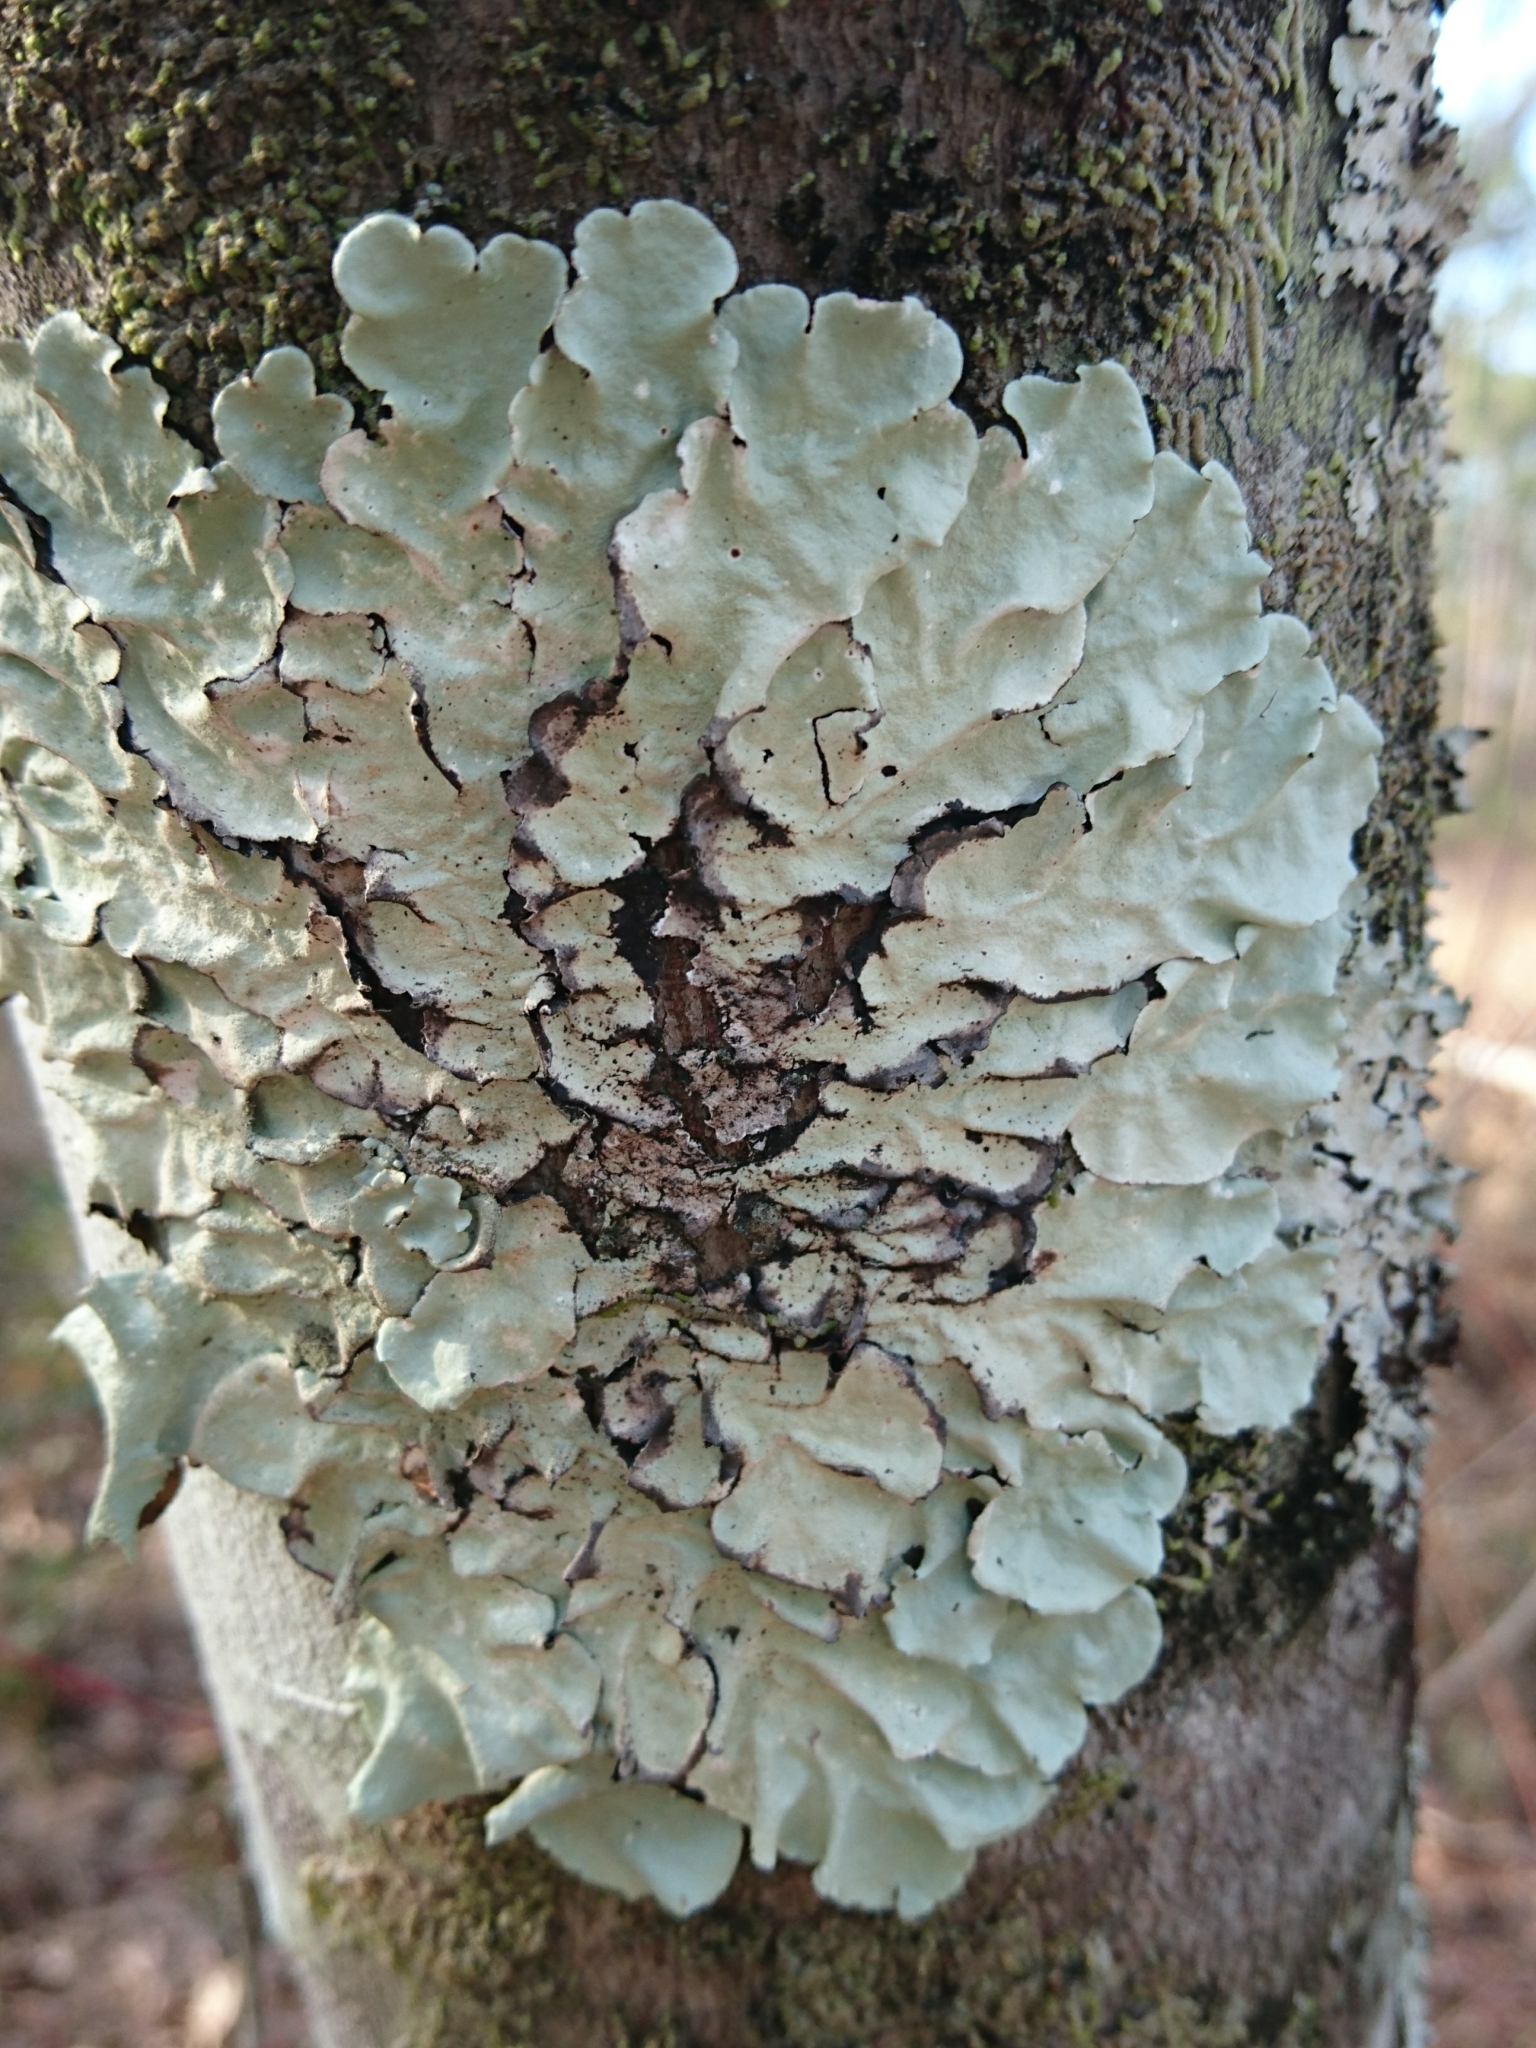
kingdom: Fungi
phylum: Ascomycota
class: Lecanoromycetes
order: Lecanorales
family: Parmeliaceae
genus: Parmotrema
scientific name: Parmotrema tinctorum
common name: Old gray ruffles
